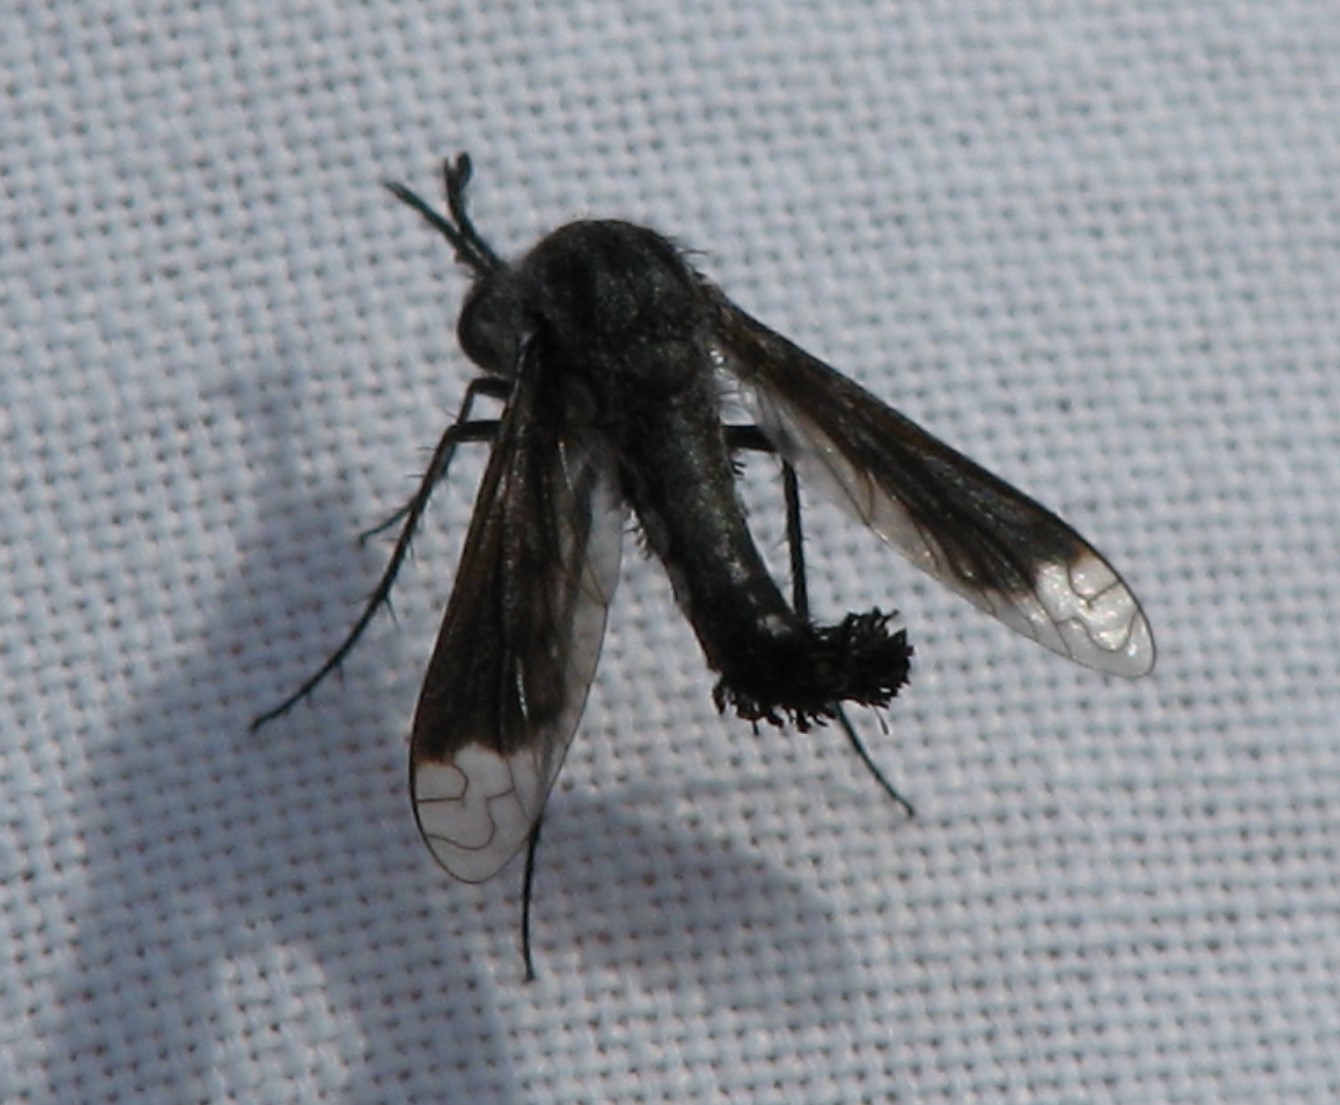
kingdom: Animalia
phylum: Arthropoda
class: Insecta
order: Diptera
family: Bombyliidae
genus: Lepidophora
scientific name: Lepidophora vetusta
